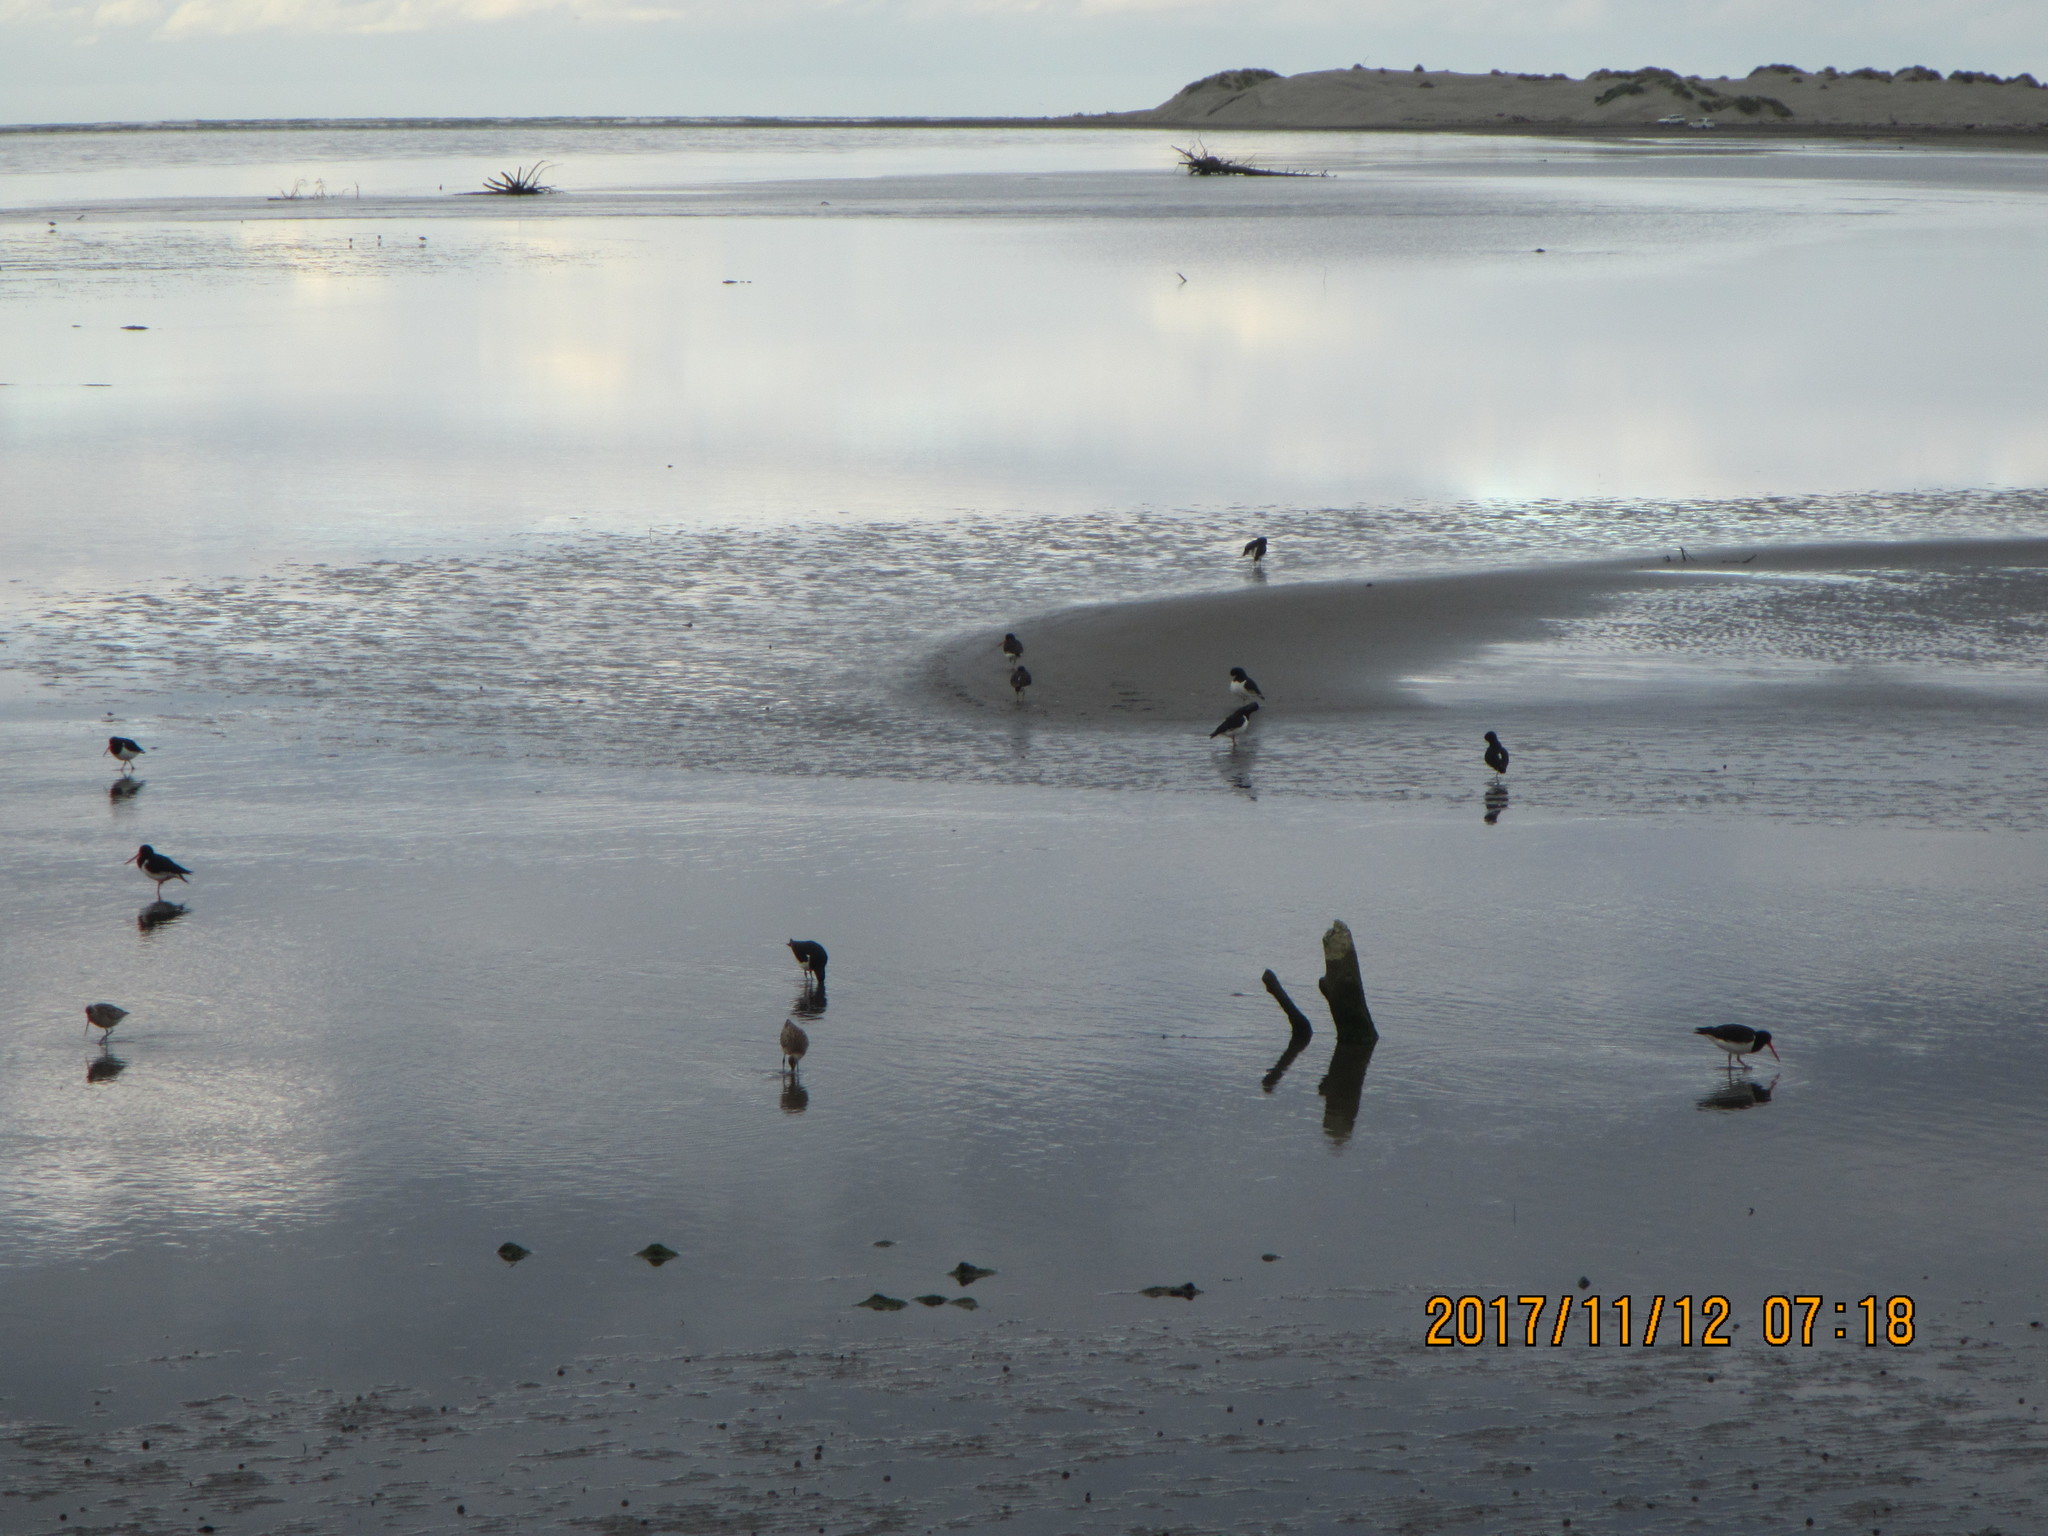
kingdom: Animalia
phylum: Chordata
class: Aves
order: Charadriiformes
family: Scolopacidae
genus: Limosa
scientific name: Limosa lapponica
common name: Bar-tailed godwit
